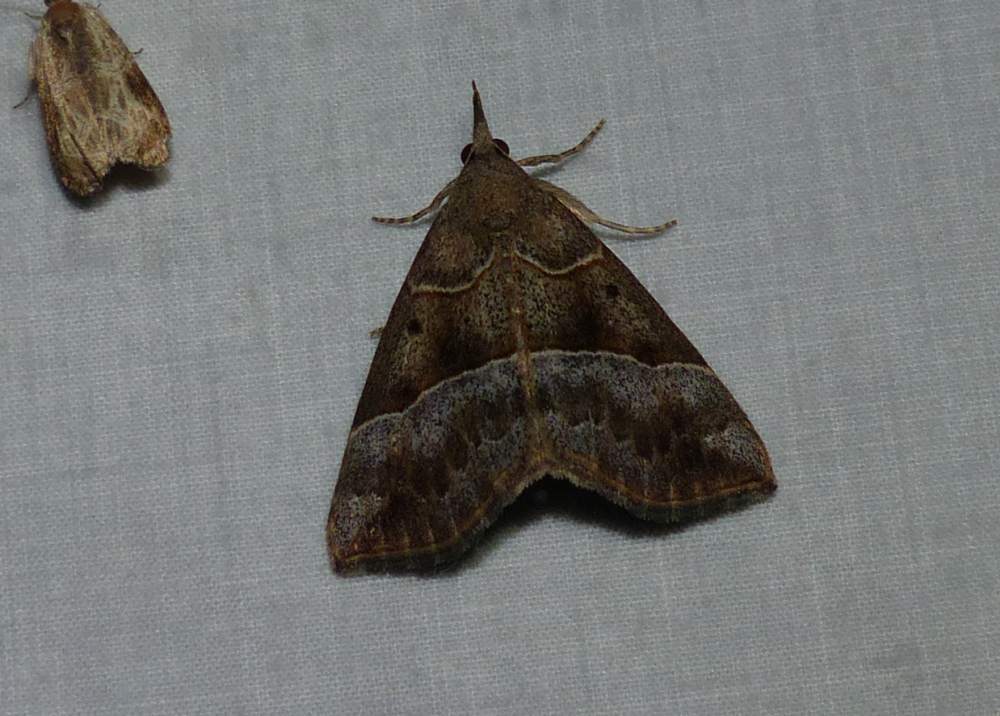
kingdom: Animalia
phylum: Arthropoda
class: Insecta
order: Lepidoptera
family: Erebidae
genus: Hypena
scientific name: Hypena deceptalis
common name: Deceptive snout
